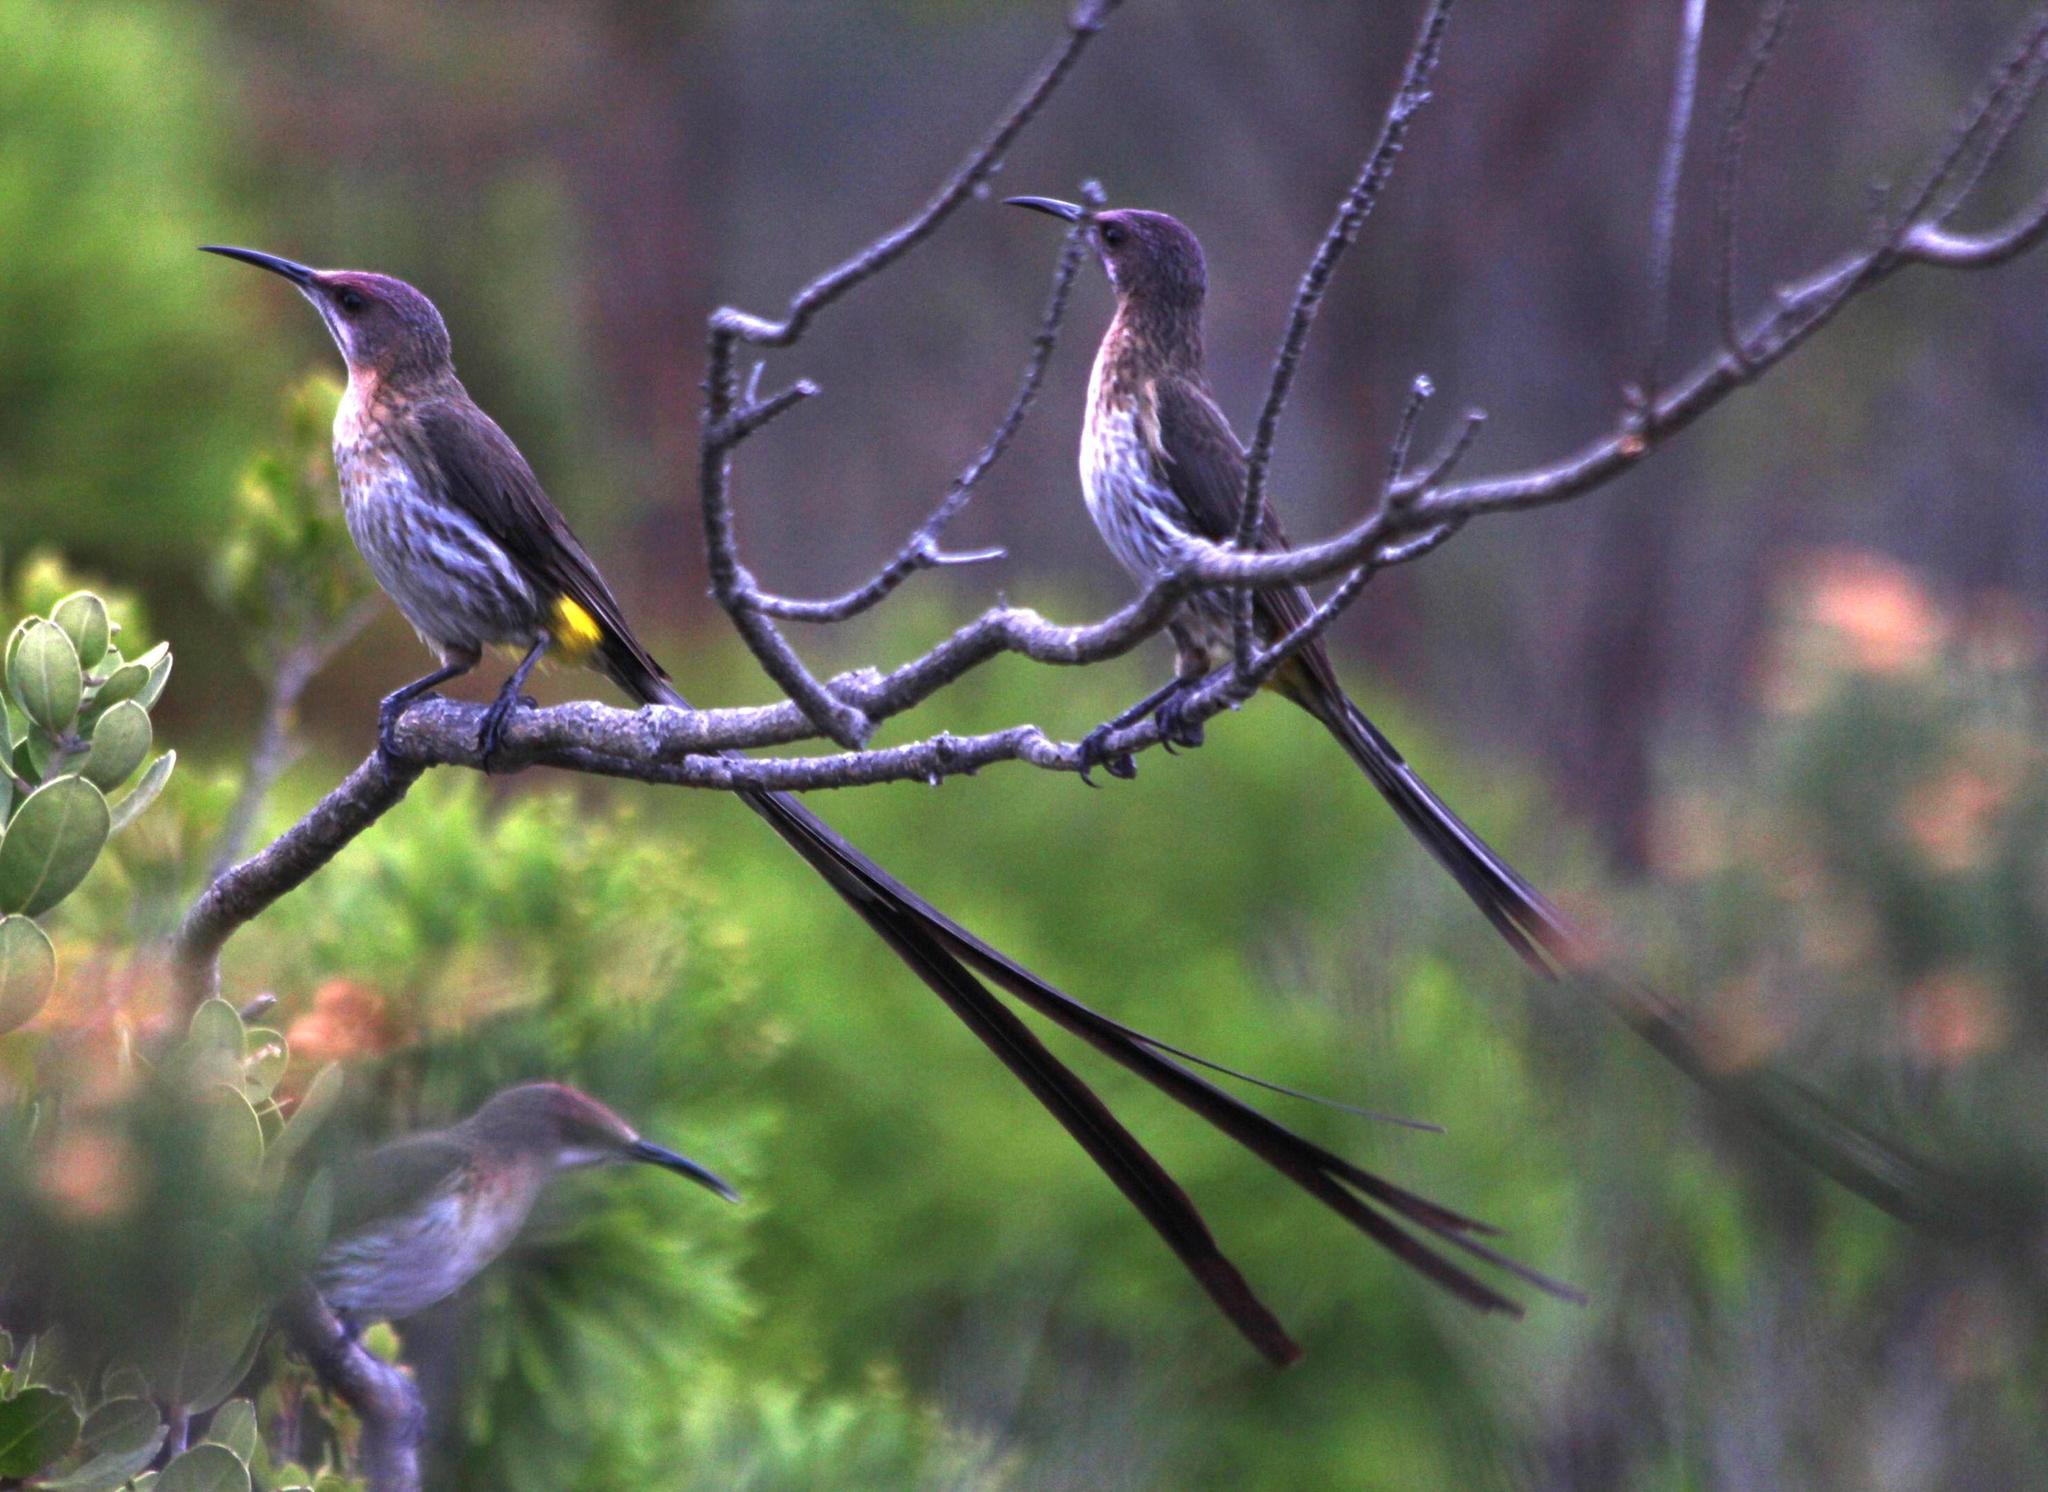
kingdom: Animalia
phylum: Chordata
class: Aves
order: Passeriformes
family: Promeropidae
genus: Promerops
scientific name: Promerops cafer
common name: Cape sugarbird
